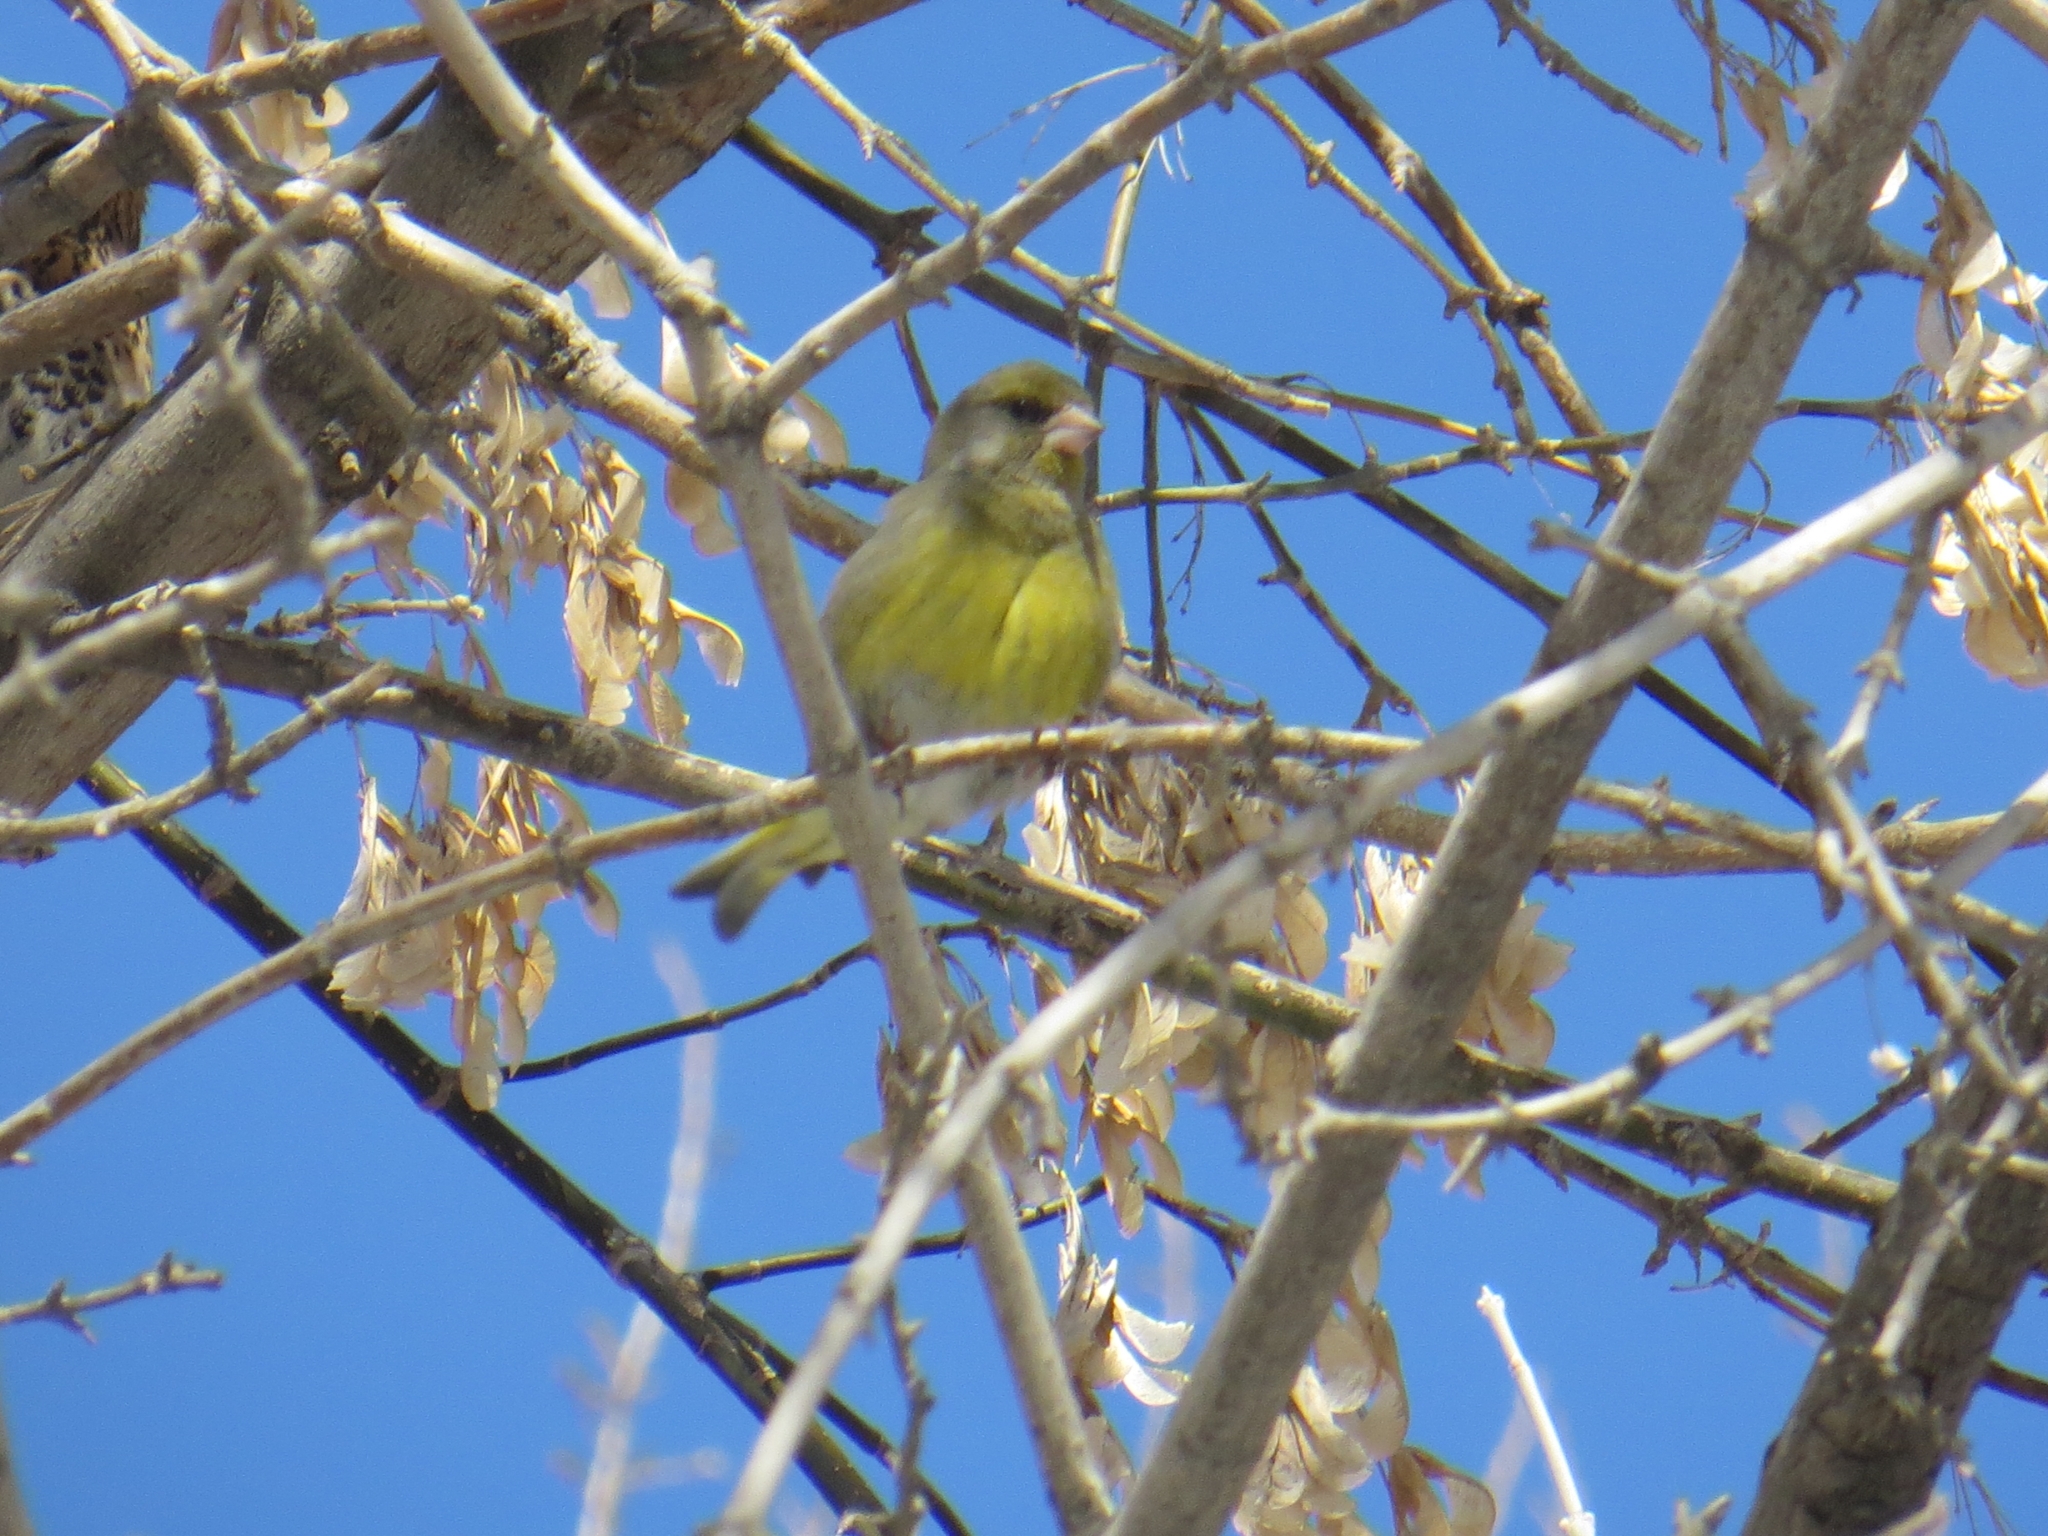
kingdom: Plantae
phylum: Tracheophyta
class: Liliopsida
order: Poales
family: Poaceae
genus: Chloris
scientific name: Chloris chloris
